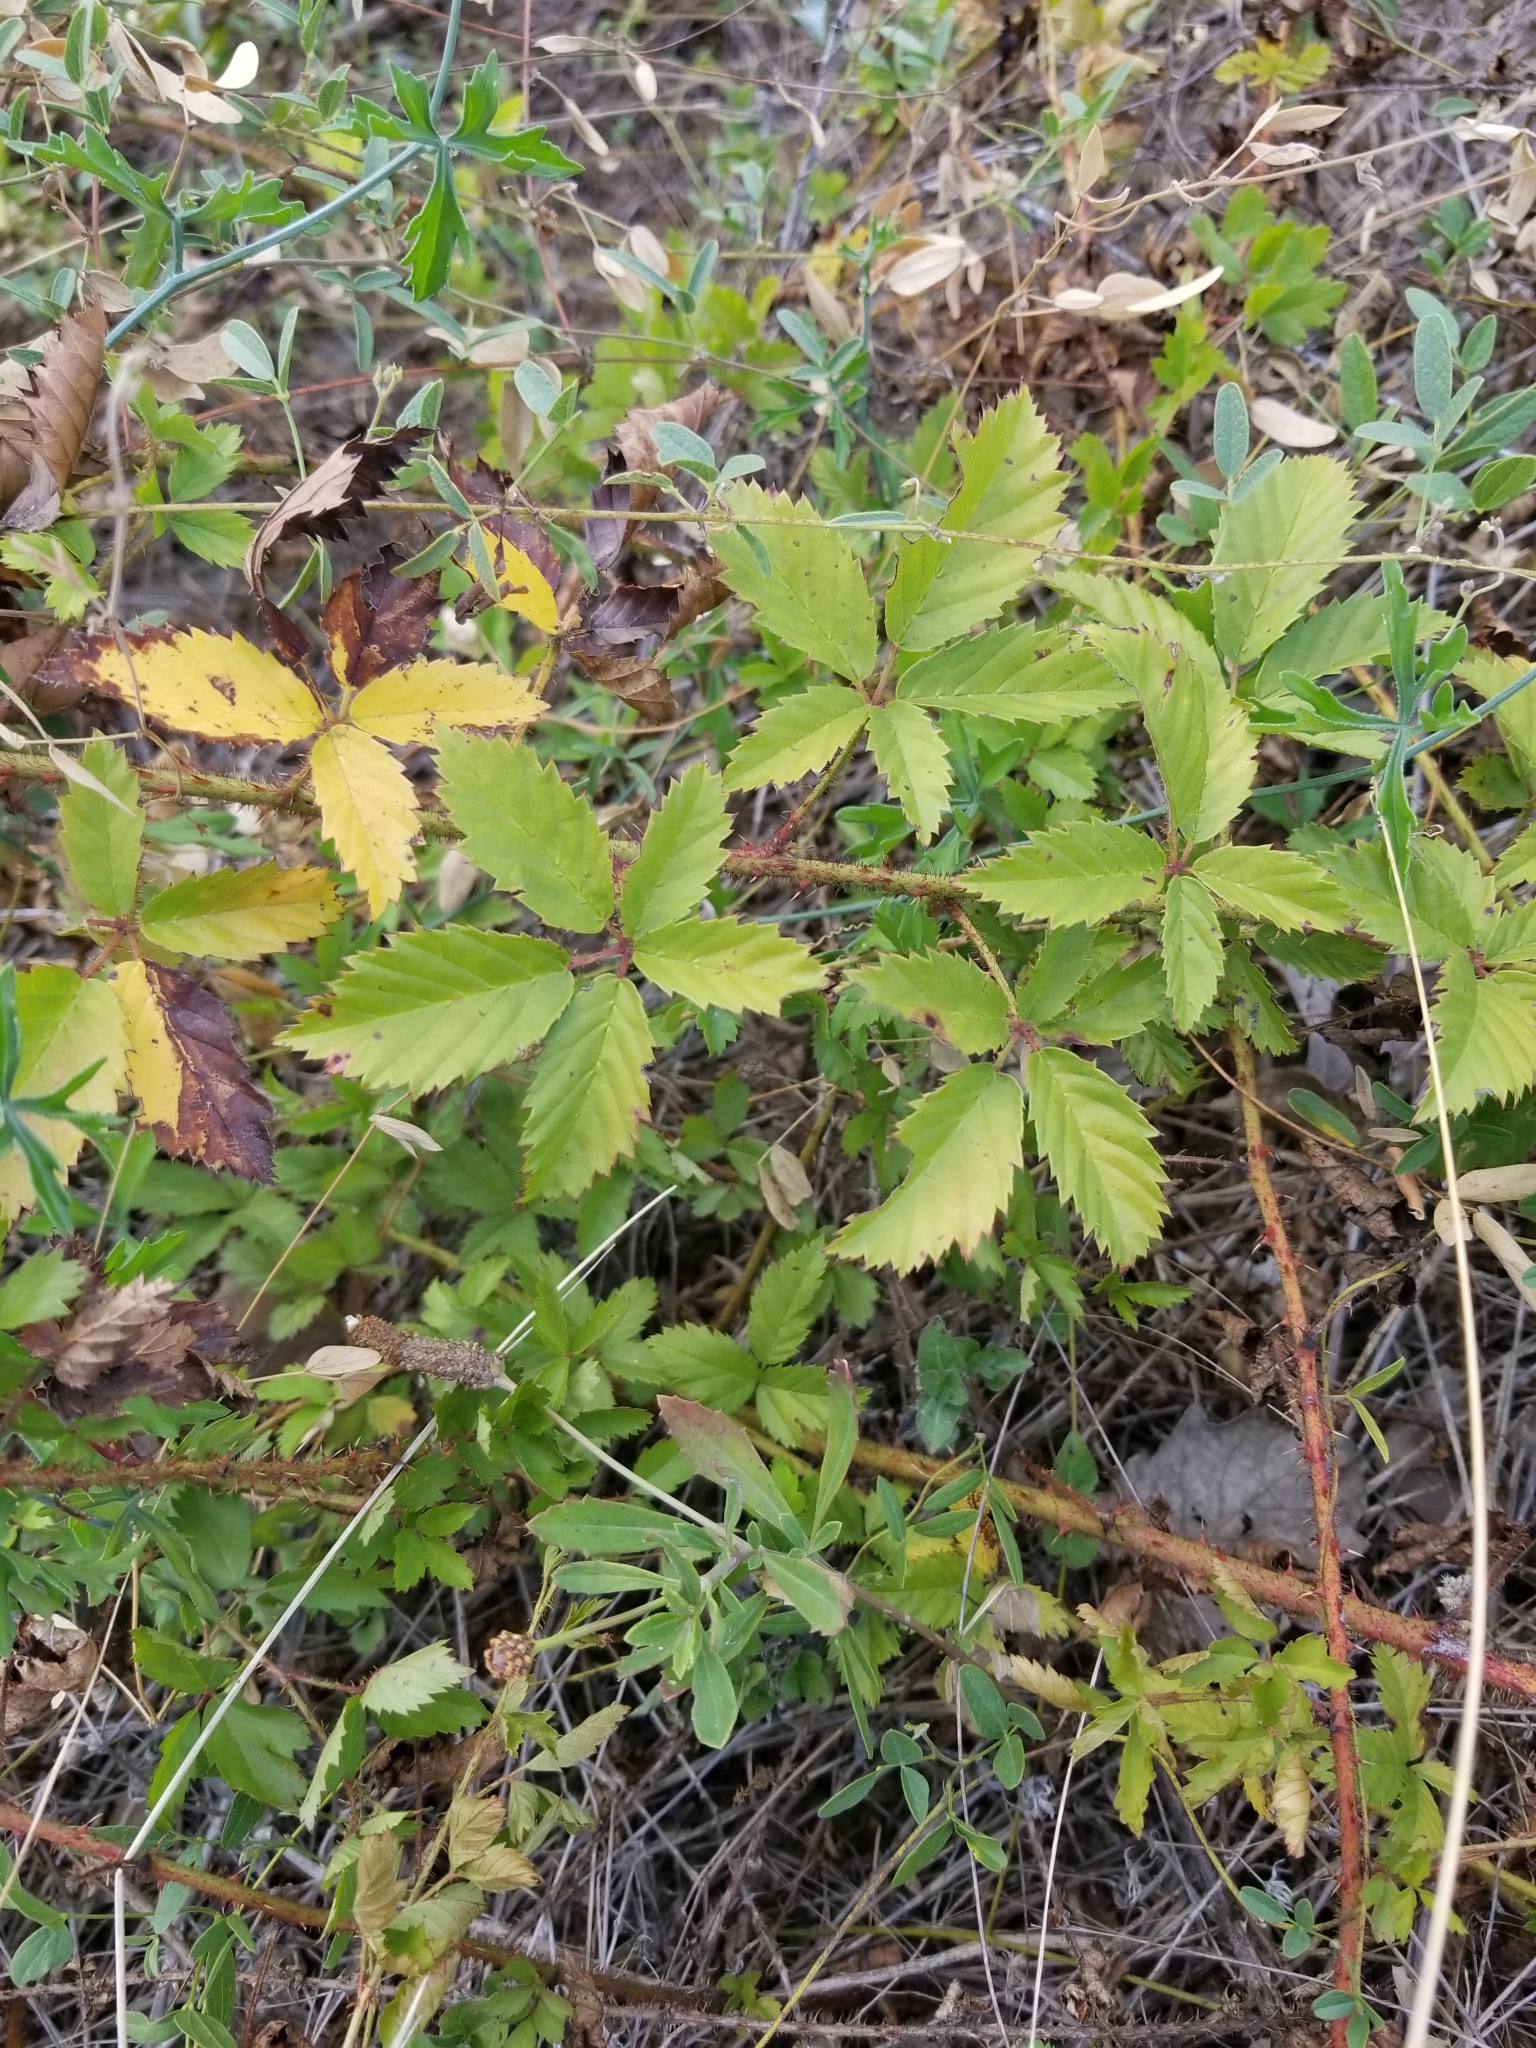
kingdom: Plantae
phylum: Tracheophyta
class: Magnoliopsida
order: Rosales
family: Rosaceae
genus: Rubus
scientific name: Rubus trivialis
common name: Southern dewberry
